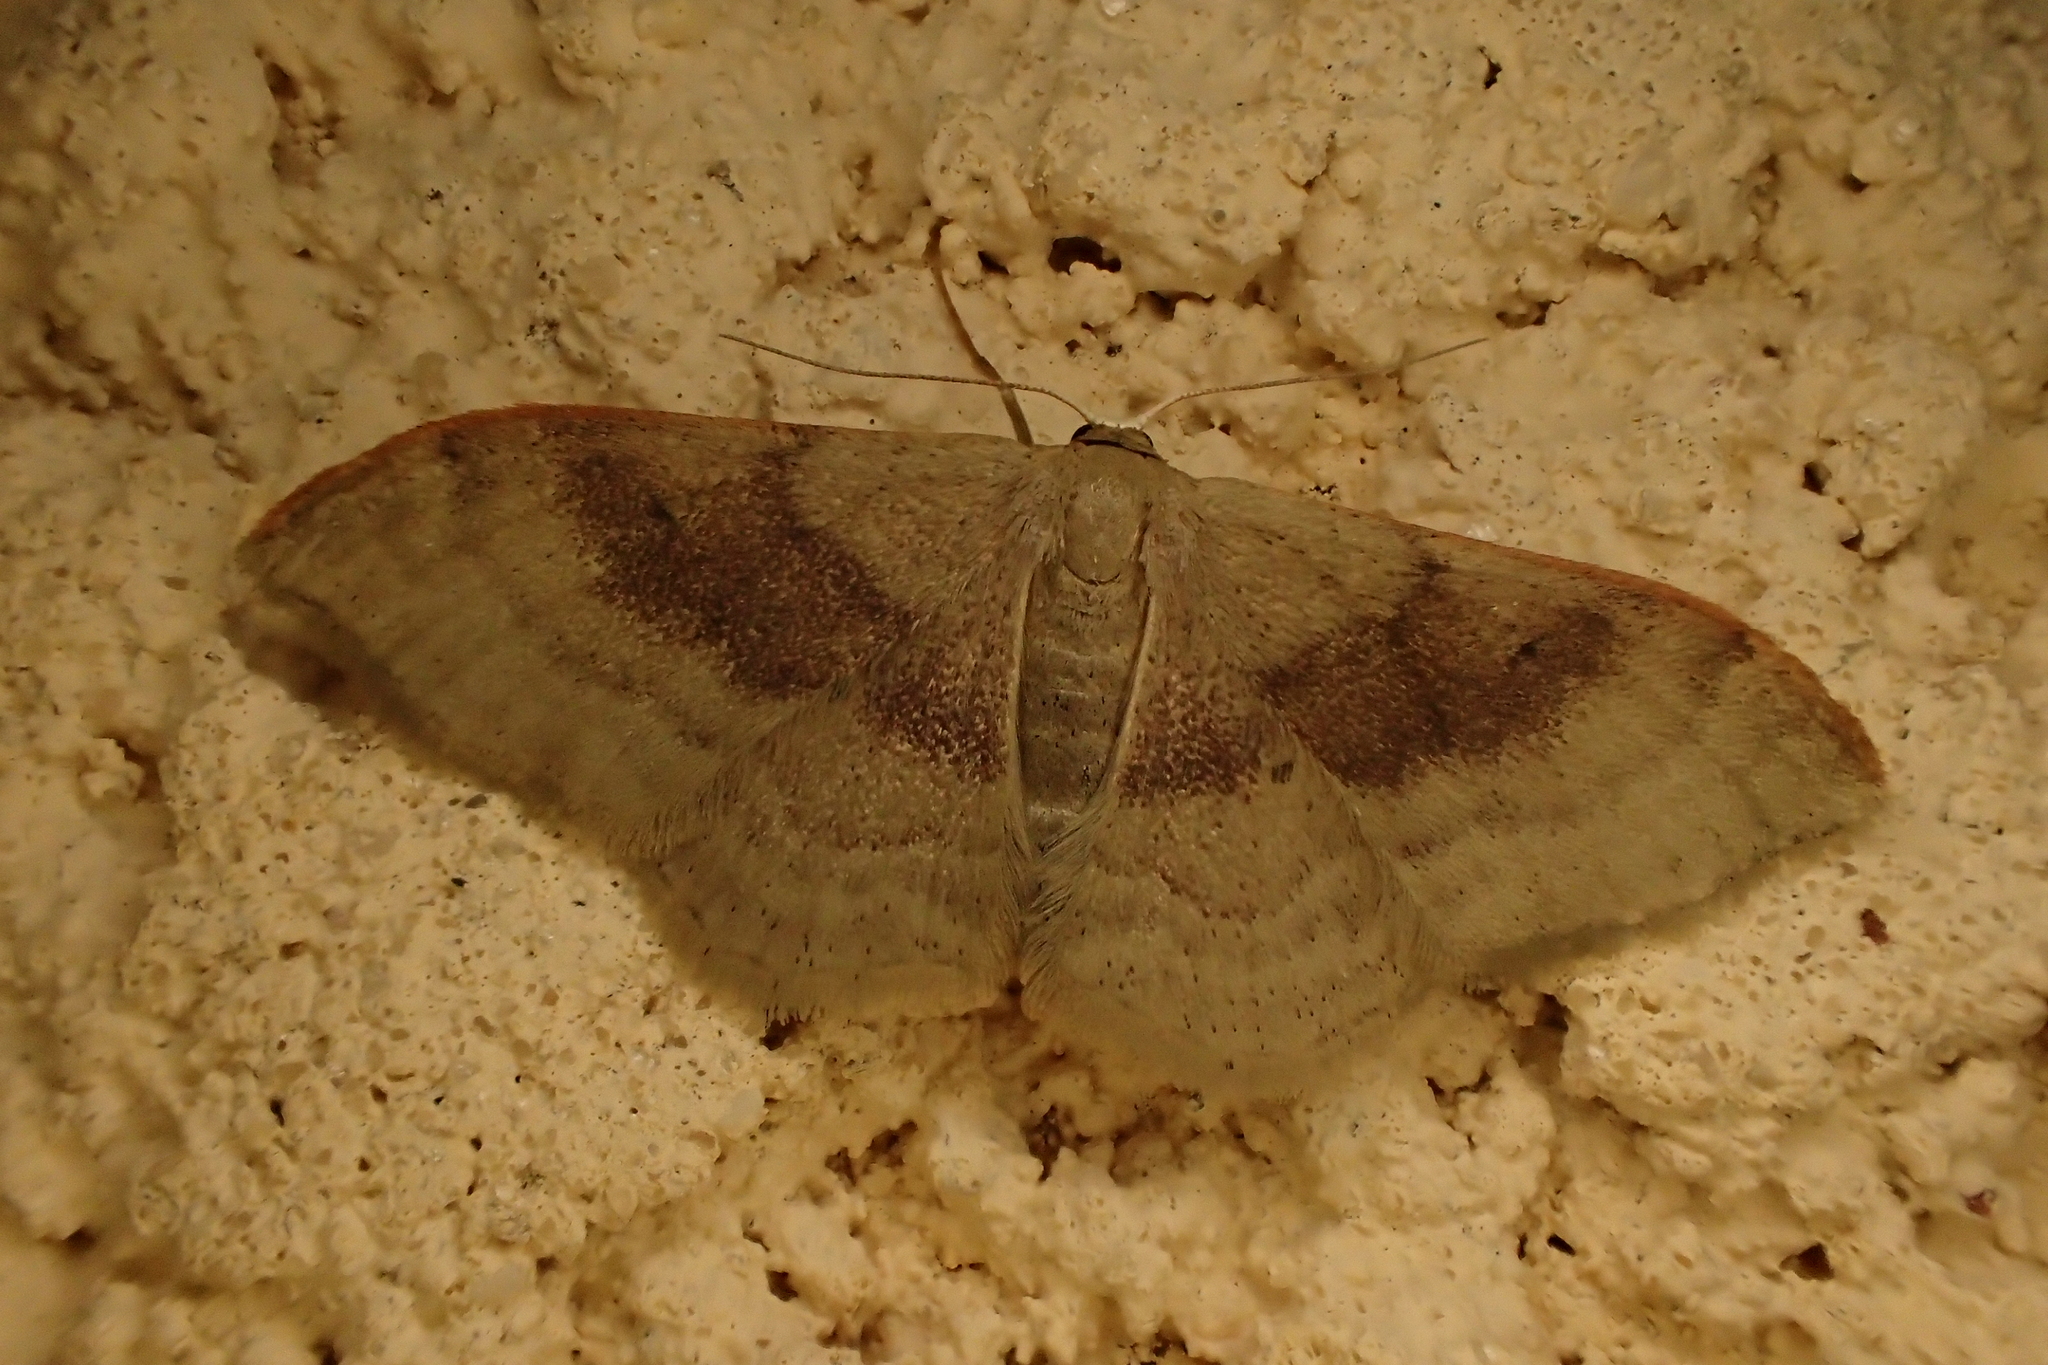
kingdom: Animalia
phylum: Arthropoda
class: Insecta
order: Lepidoptera
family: Geometridae
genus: Idaea
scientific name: Idaea degeneraria
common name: Portland ribbon wave
